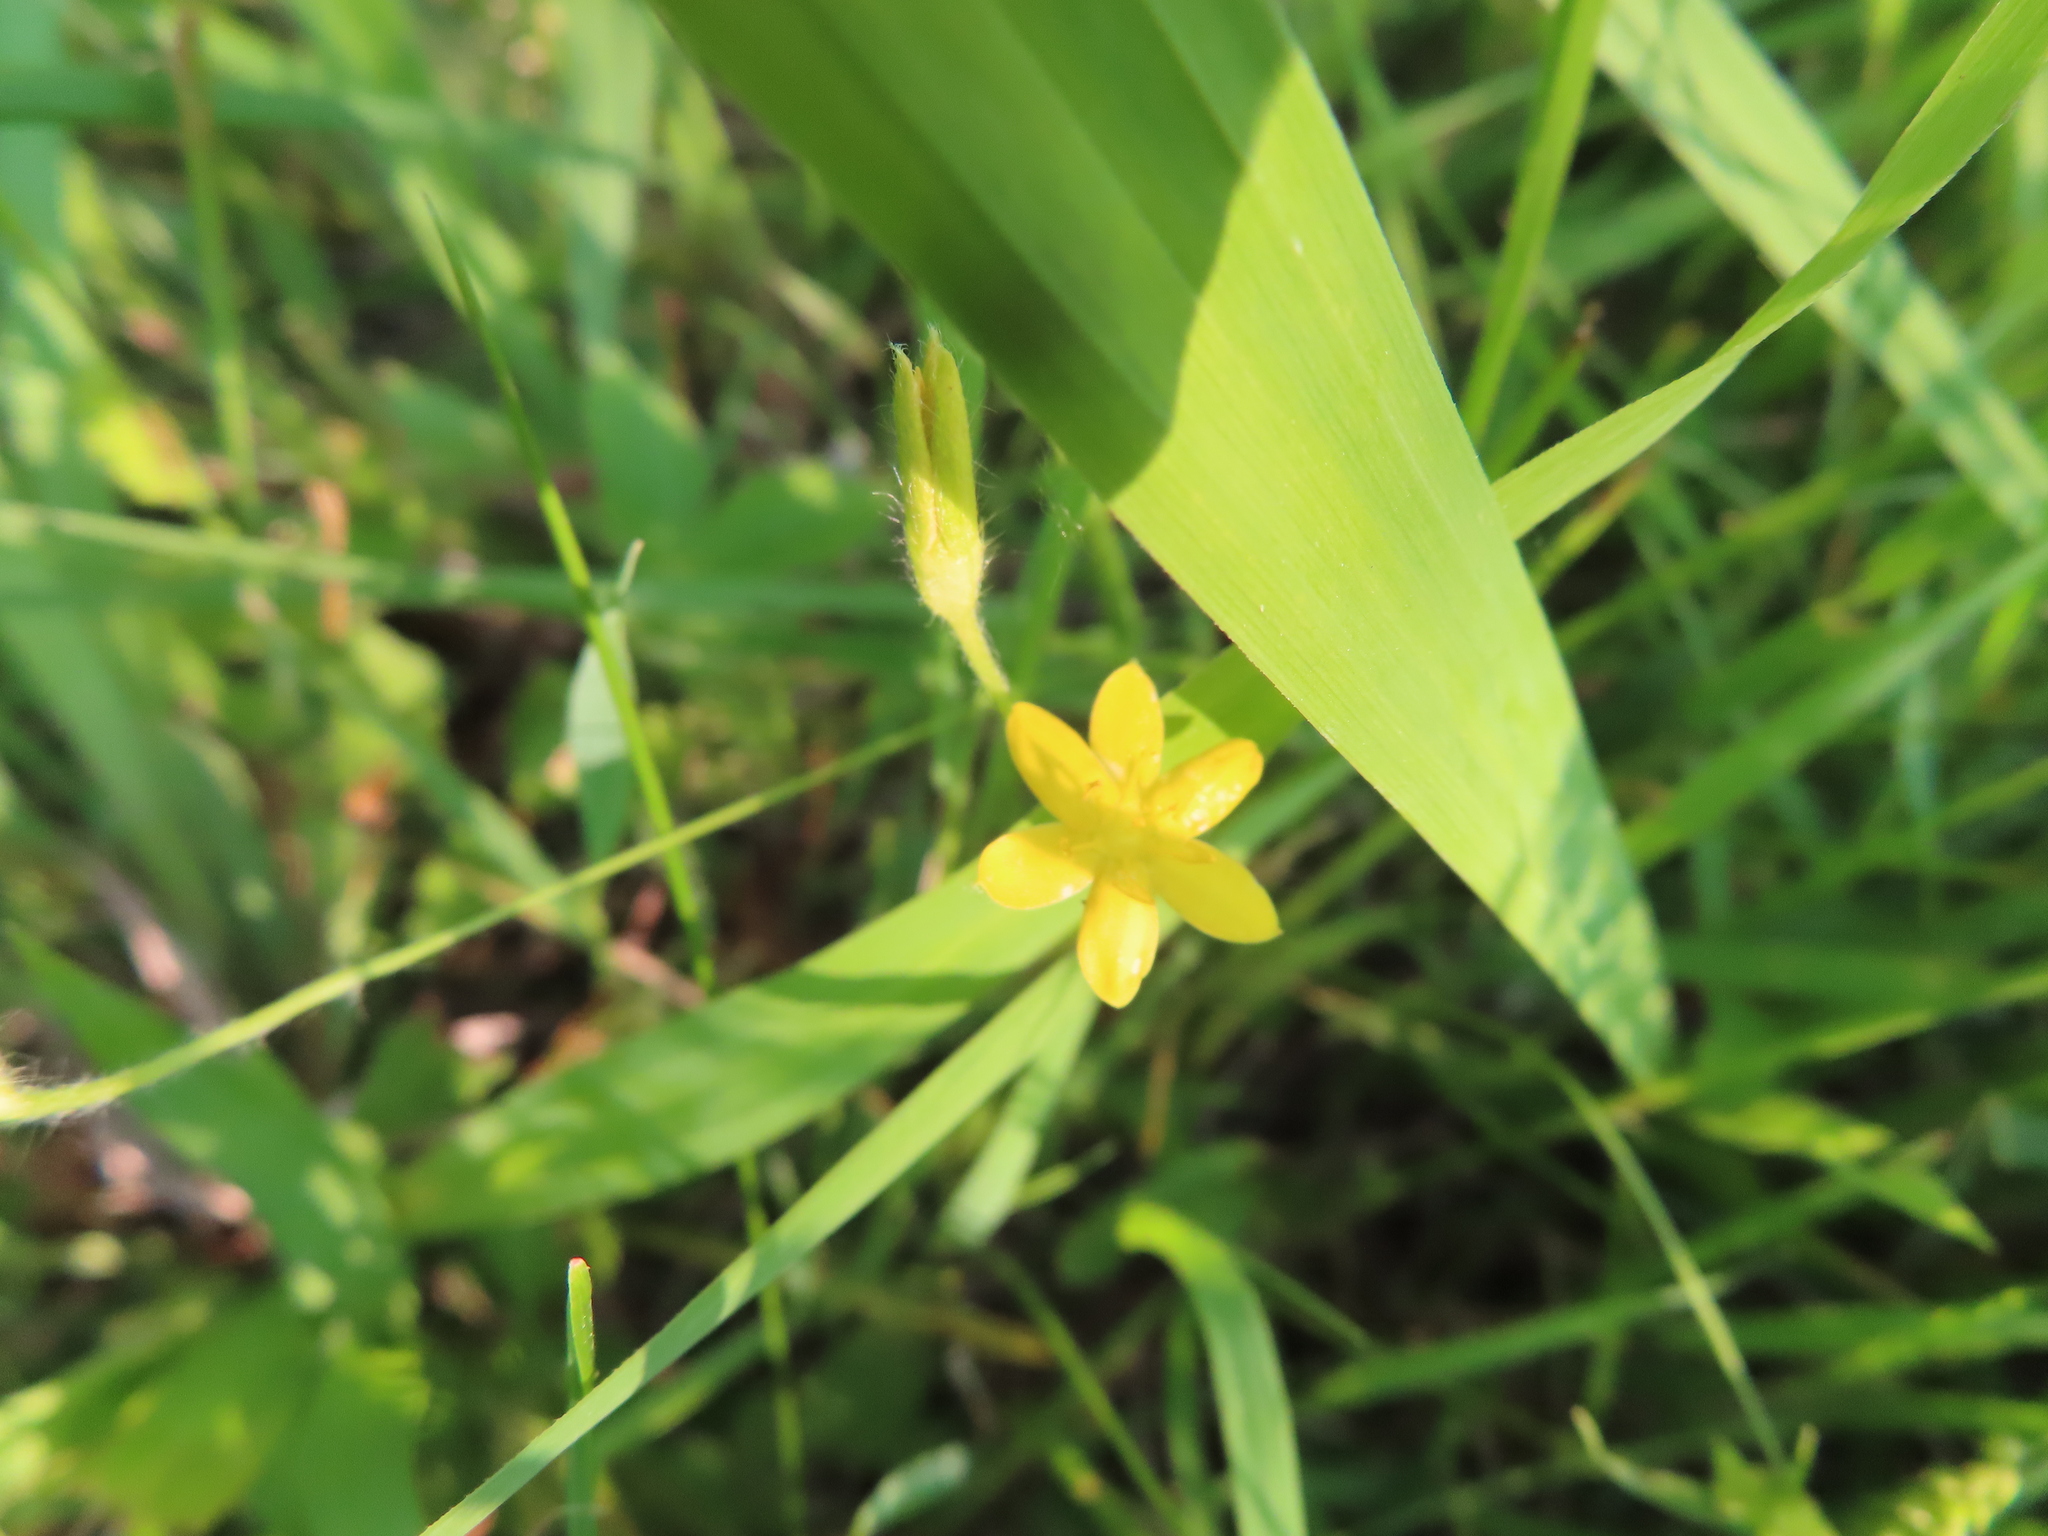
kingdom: Plantae
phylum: Tracheophyta
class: Liliopsida
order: Asparagales
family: Hypoxidaceae
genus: Hypoxis
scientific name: Hypoxis hirsuta
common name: Common goldstar
